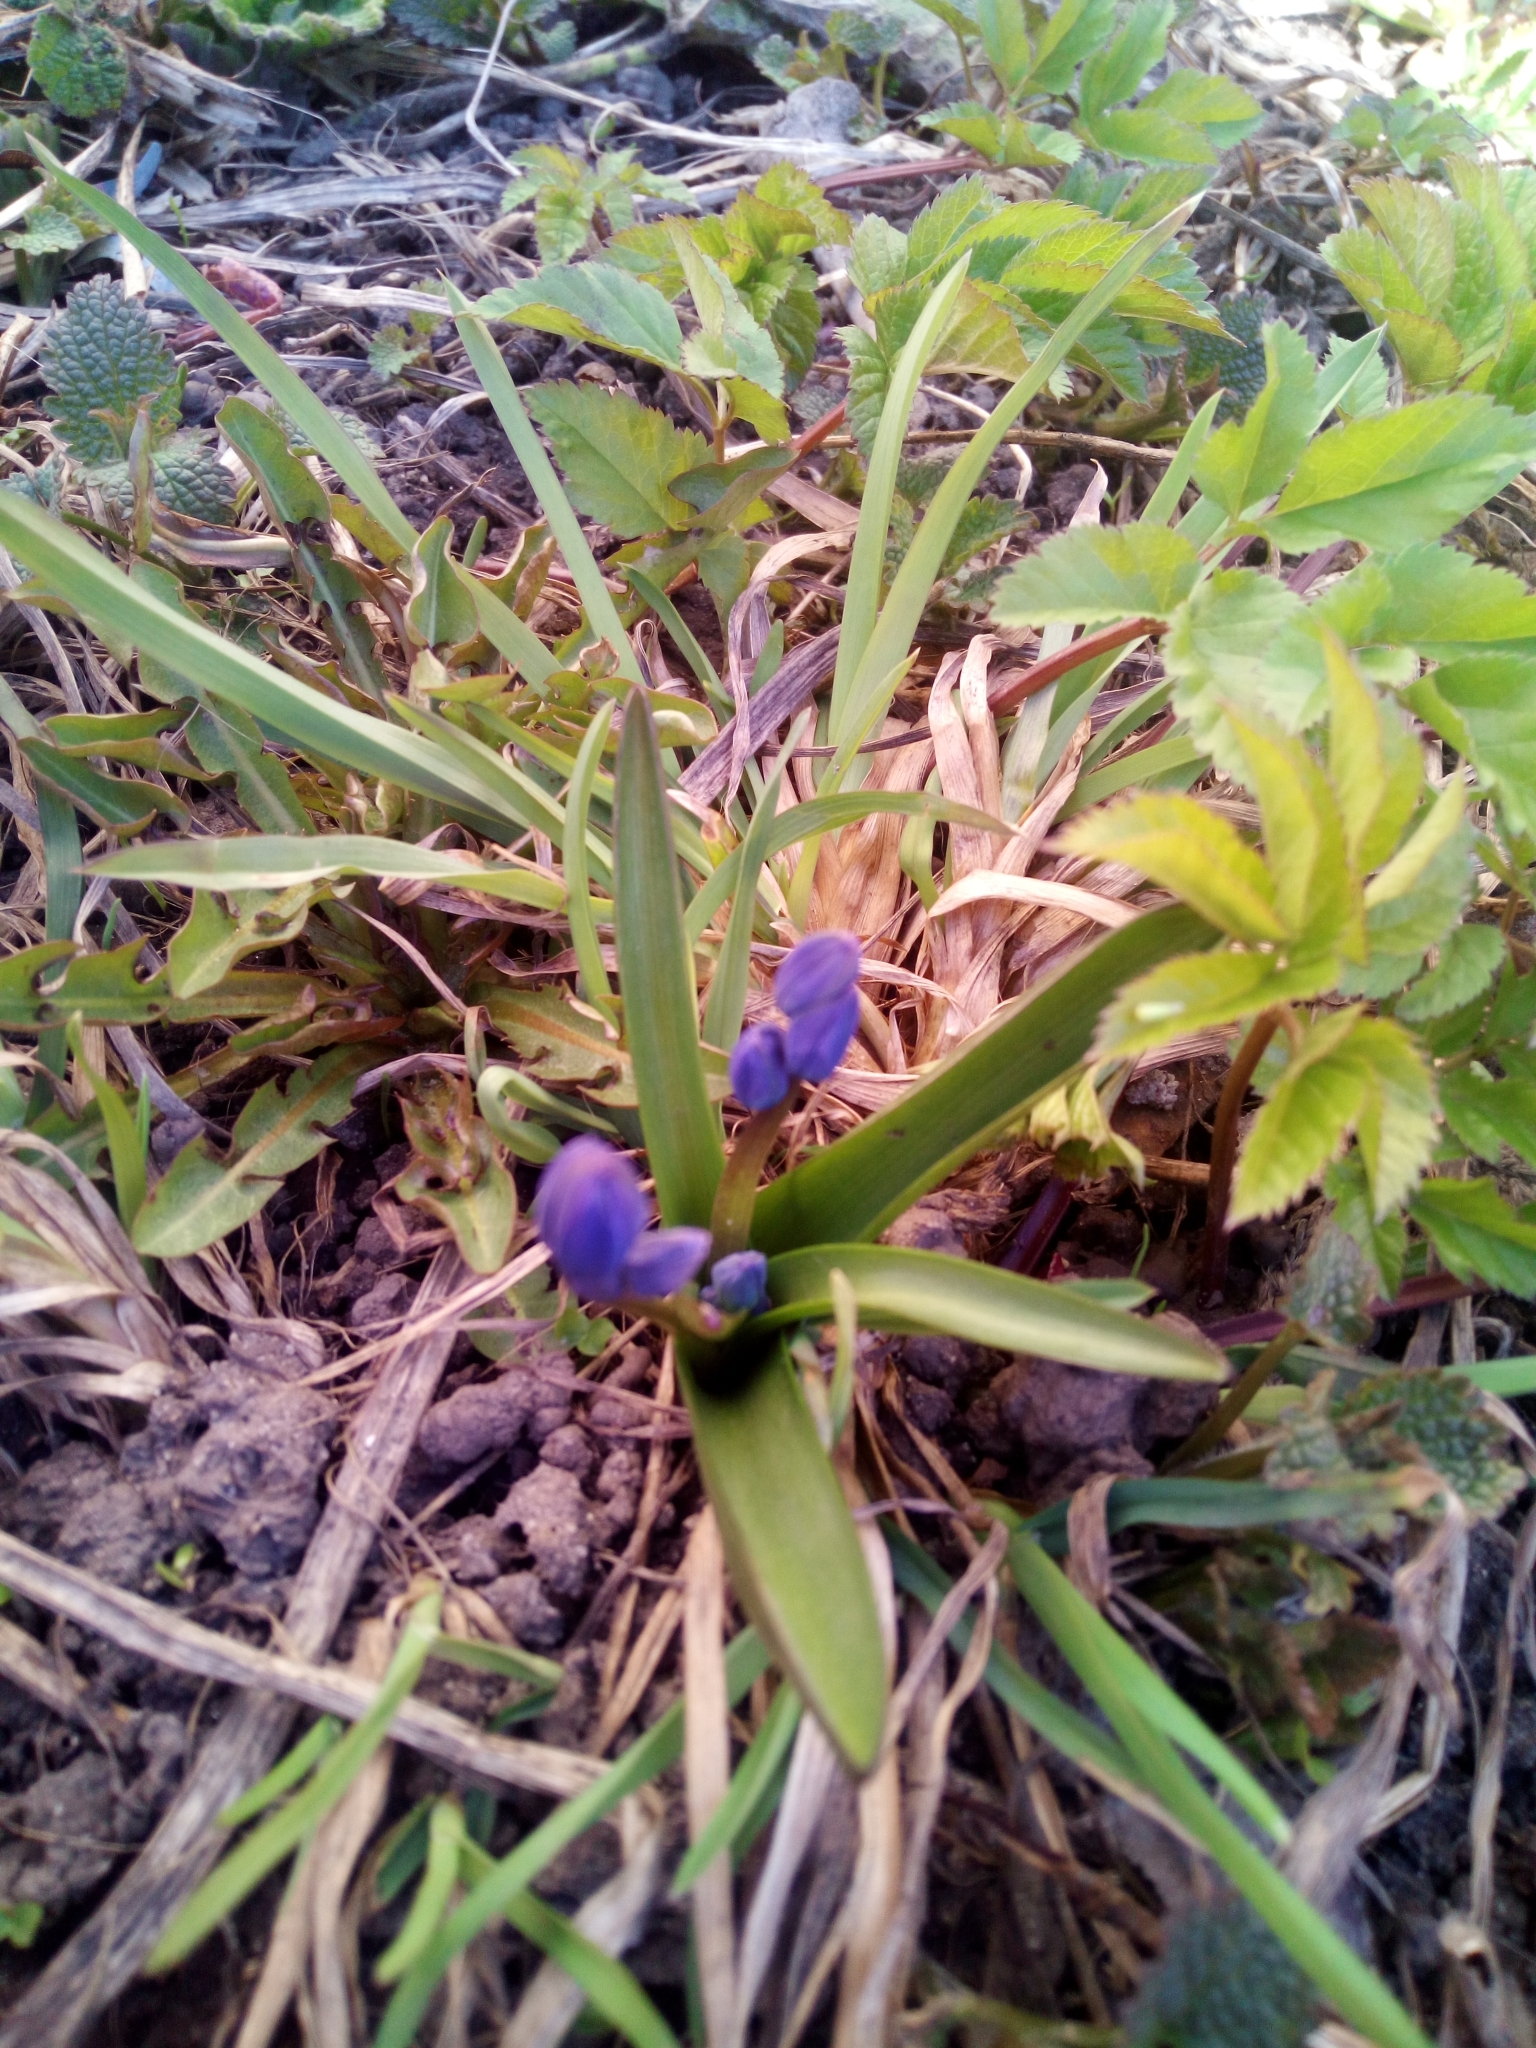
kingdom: Plantae
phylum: Tracheophyta
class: Liliopsida
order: Asparagales
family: Asparagaceae
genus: Scilla
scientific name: Scilla siberica
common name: Siberian squill
